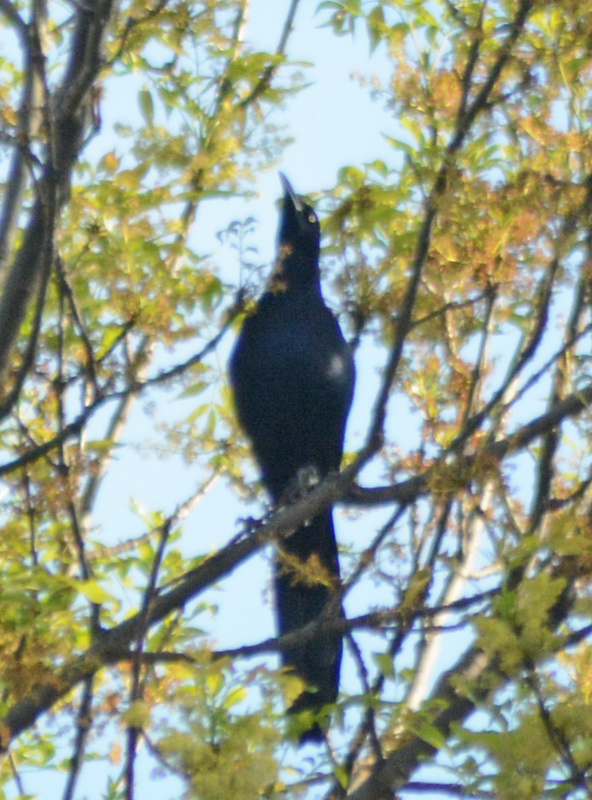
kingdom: Animalia
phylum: Chordata
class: Aves
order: Passeriformes
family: Icteridae
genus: Quiscalus
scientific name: Quiscalus mexicanus
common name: Great-tailed grackle
